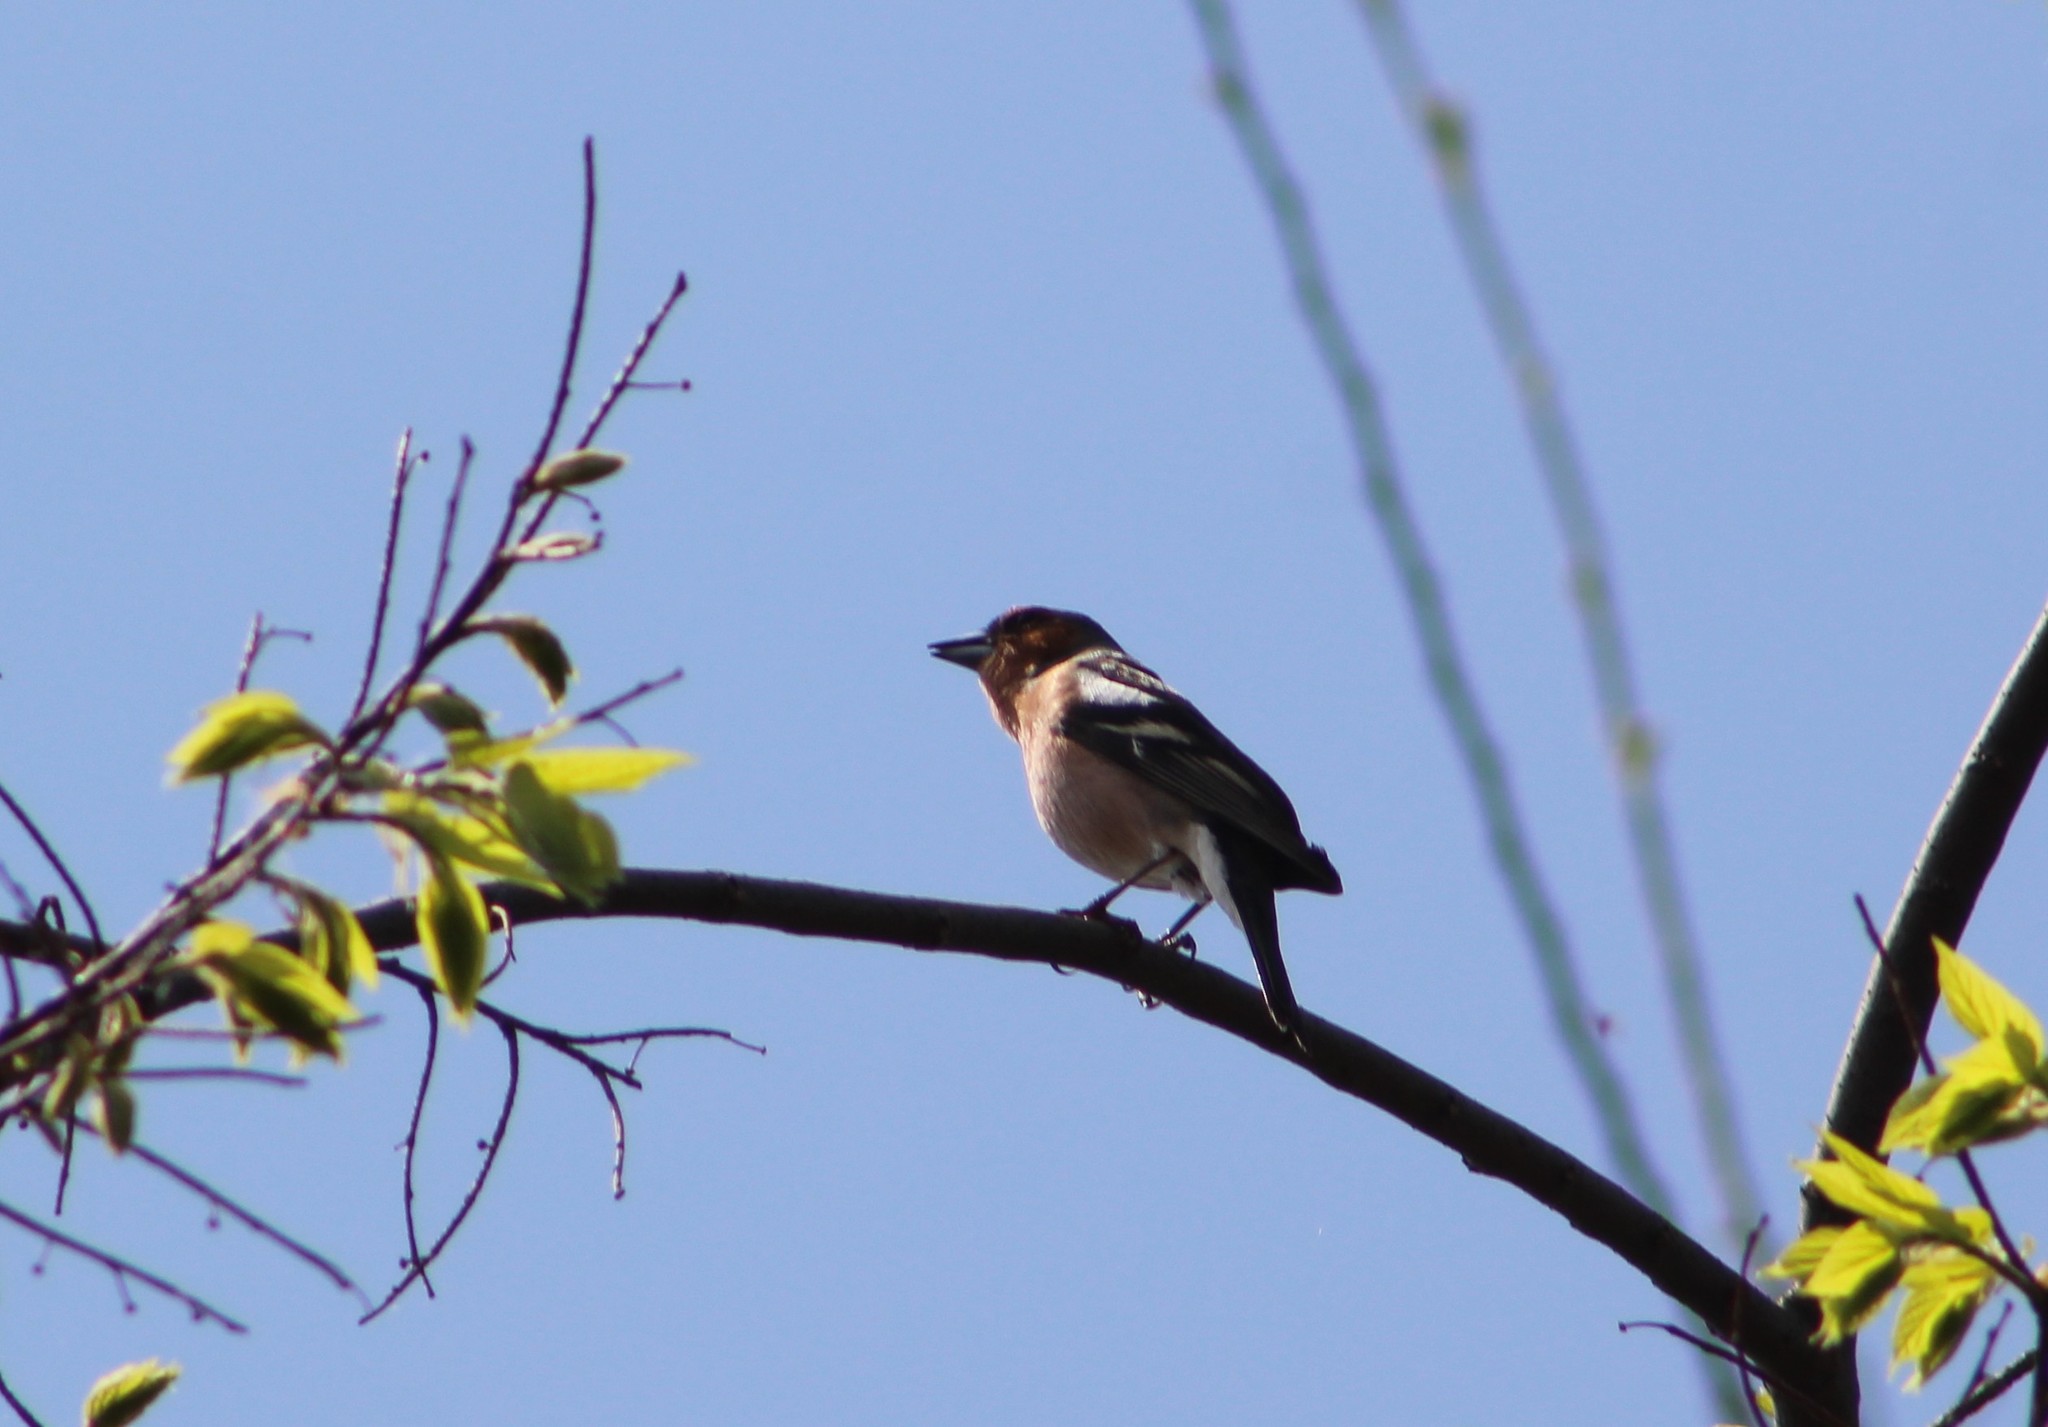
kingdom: Animalia
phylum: Chordata
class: Aves
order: Passeriformes
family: Fringillidae
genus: Fringilla
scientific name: Fringilla coelebs
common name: Common chaffinch
